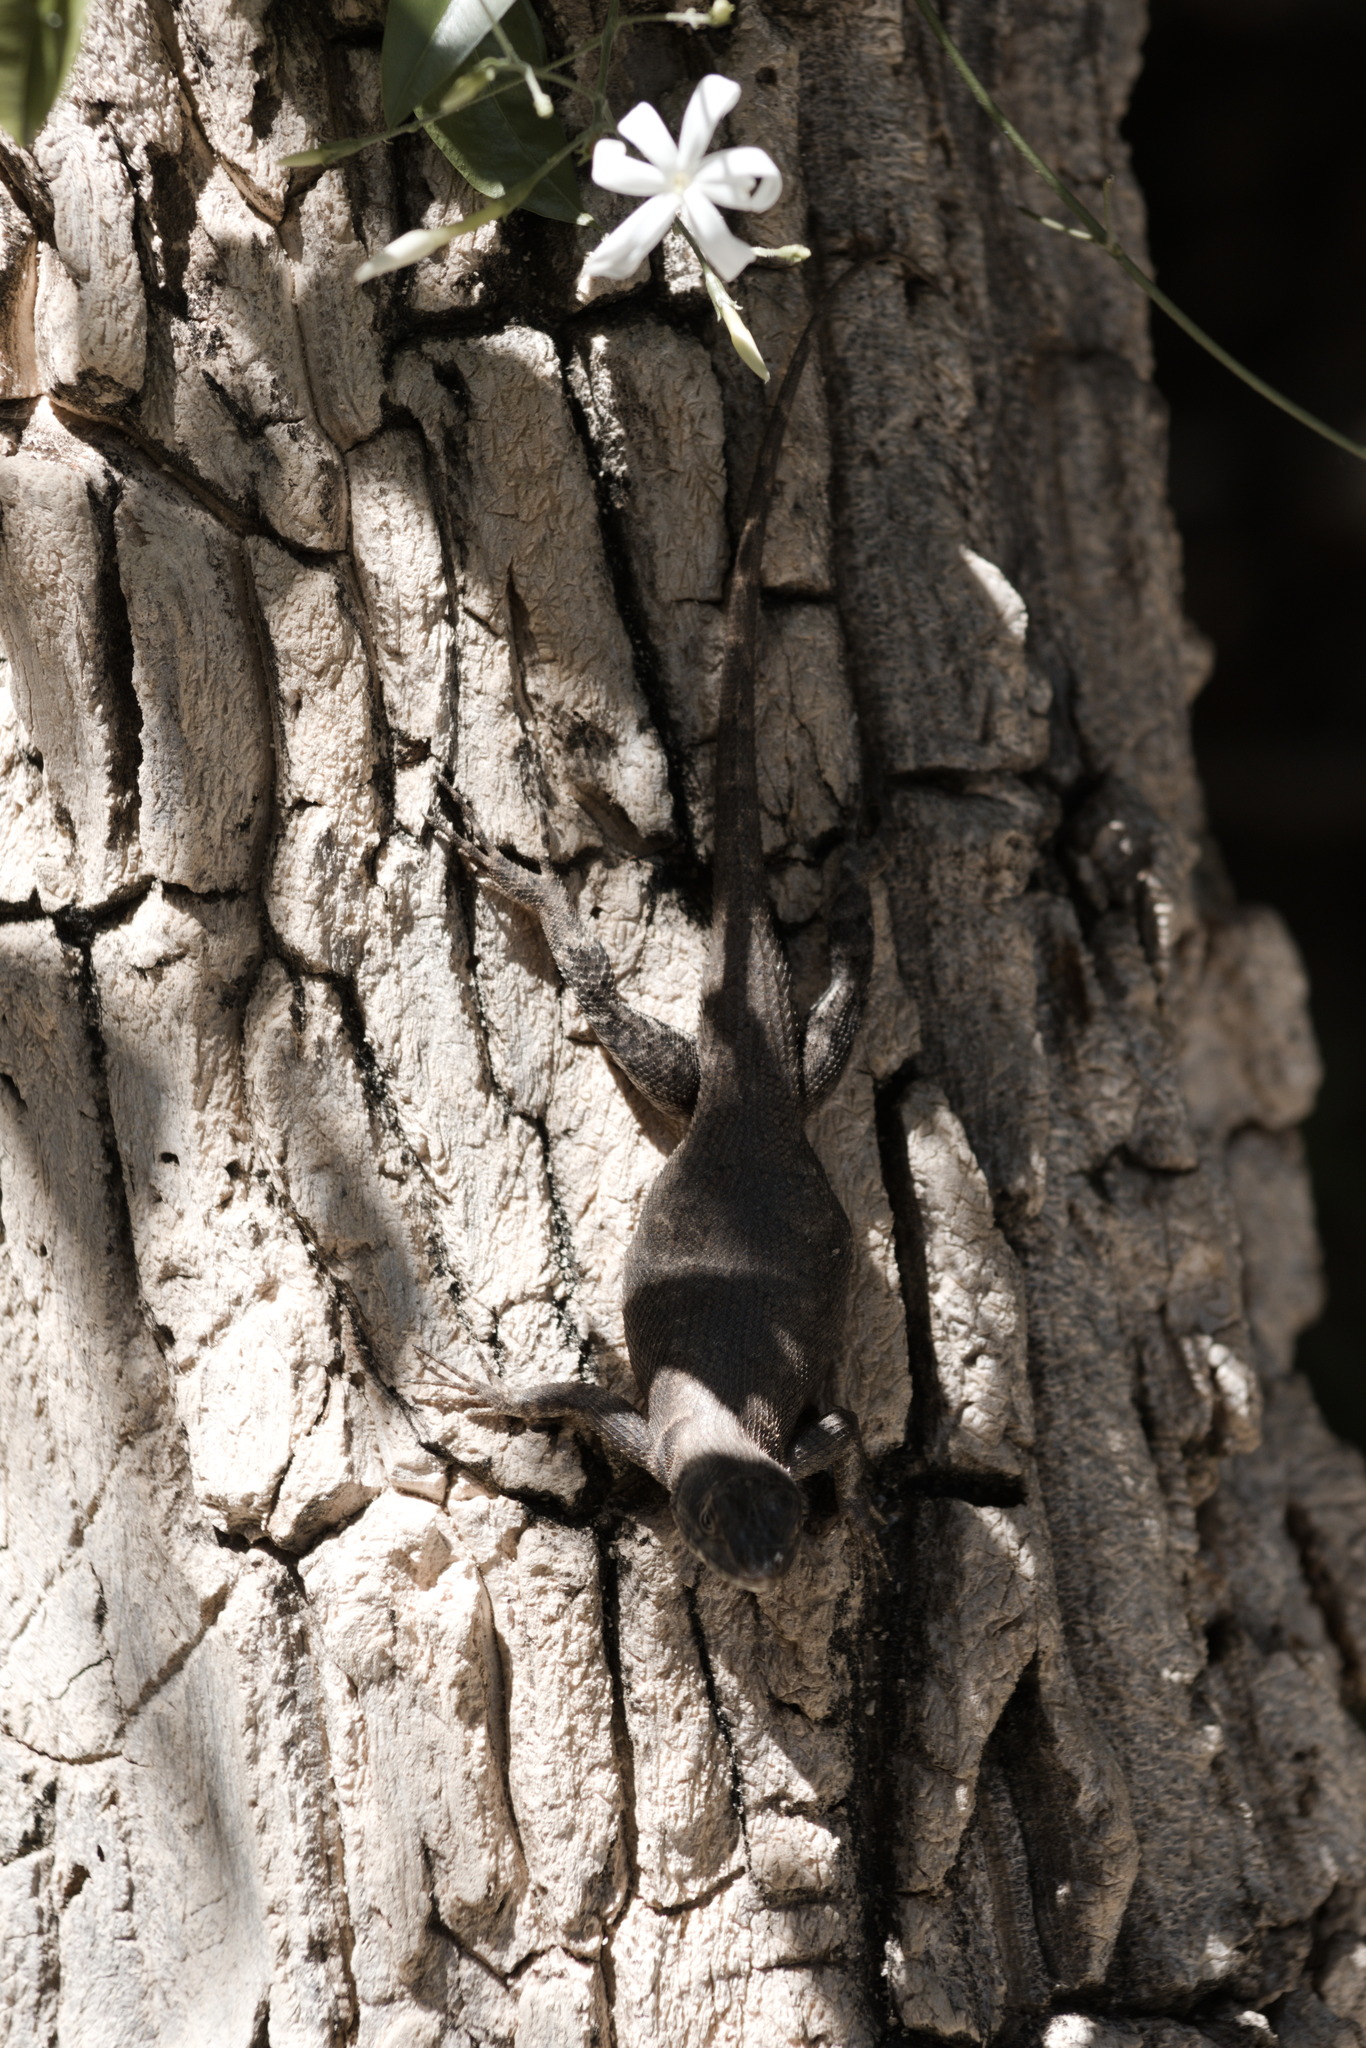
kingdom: Animalia
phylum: Chordata
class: Squamata
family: Tropiduridae
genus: Tropidurus
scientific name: Tropidurus hispidus
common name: Peters' lava lizard
